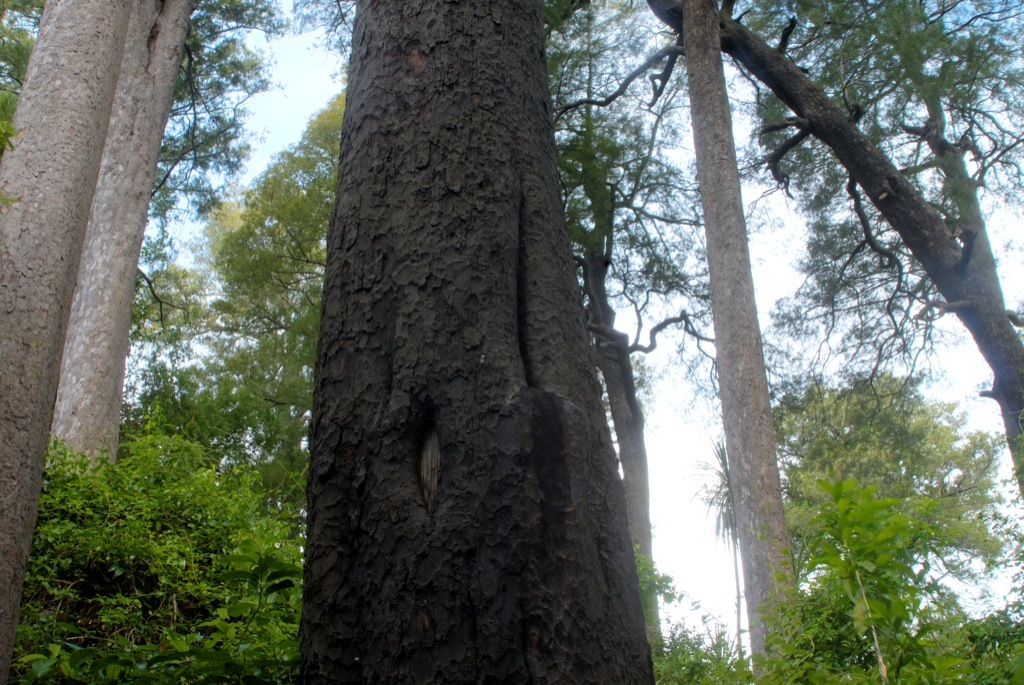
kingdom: Plantae
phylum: Tracheophyta
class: Pinopsida
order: Pinales
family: Podocarpaceae
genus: Dacrycarpus
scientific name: Dacrycarpus dacrydioides
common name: White pine
